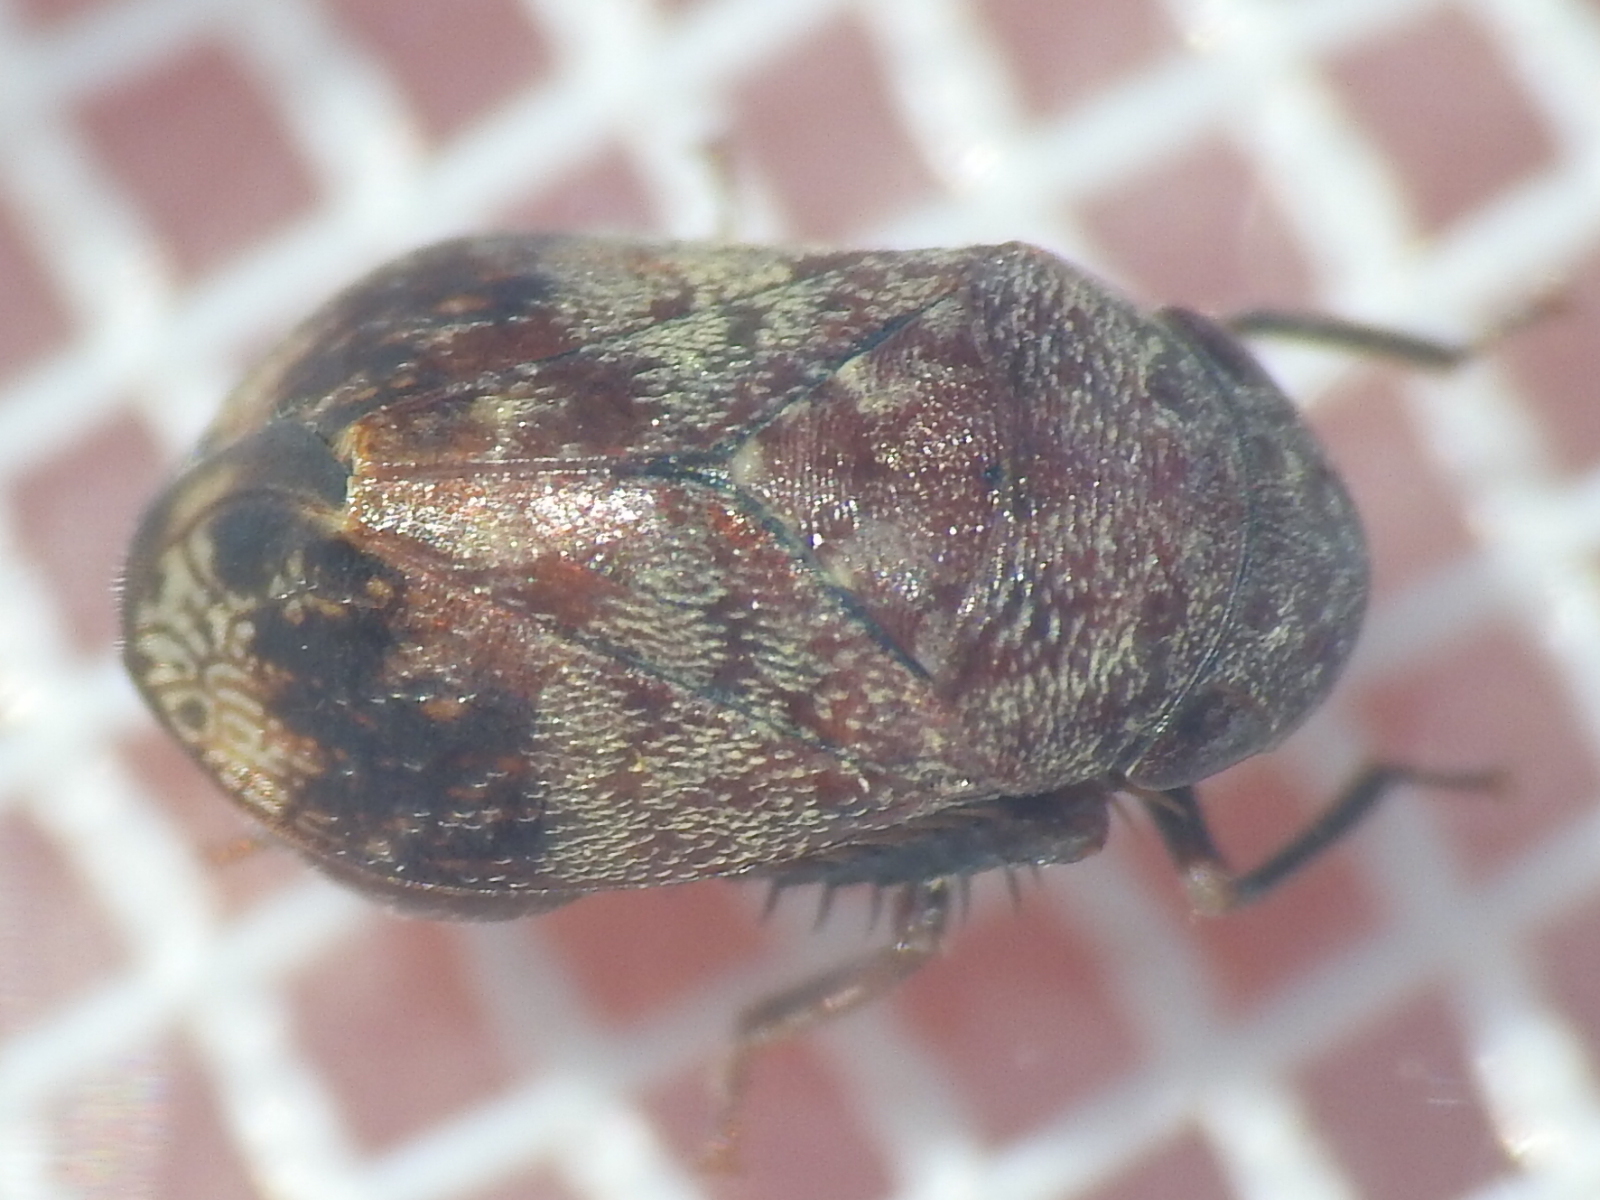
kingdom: Animalia
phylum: Arthropoda
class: Insecta
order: Hemiptera
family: Cicadellidae
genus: Penthimia
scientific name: Penthimia americana
